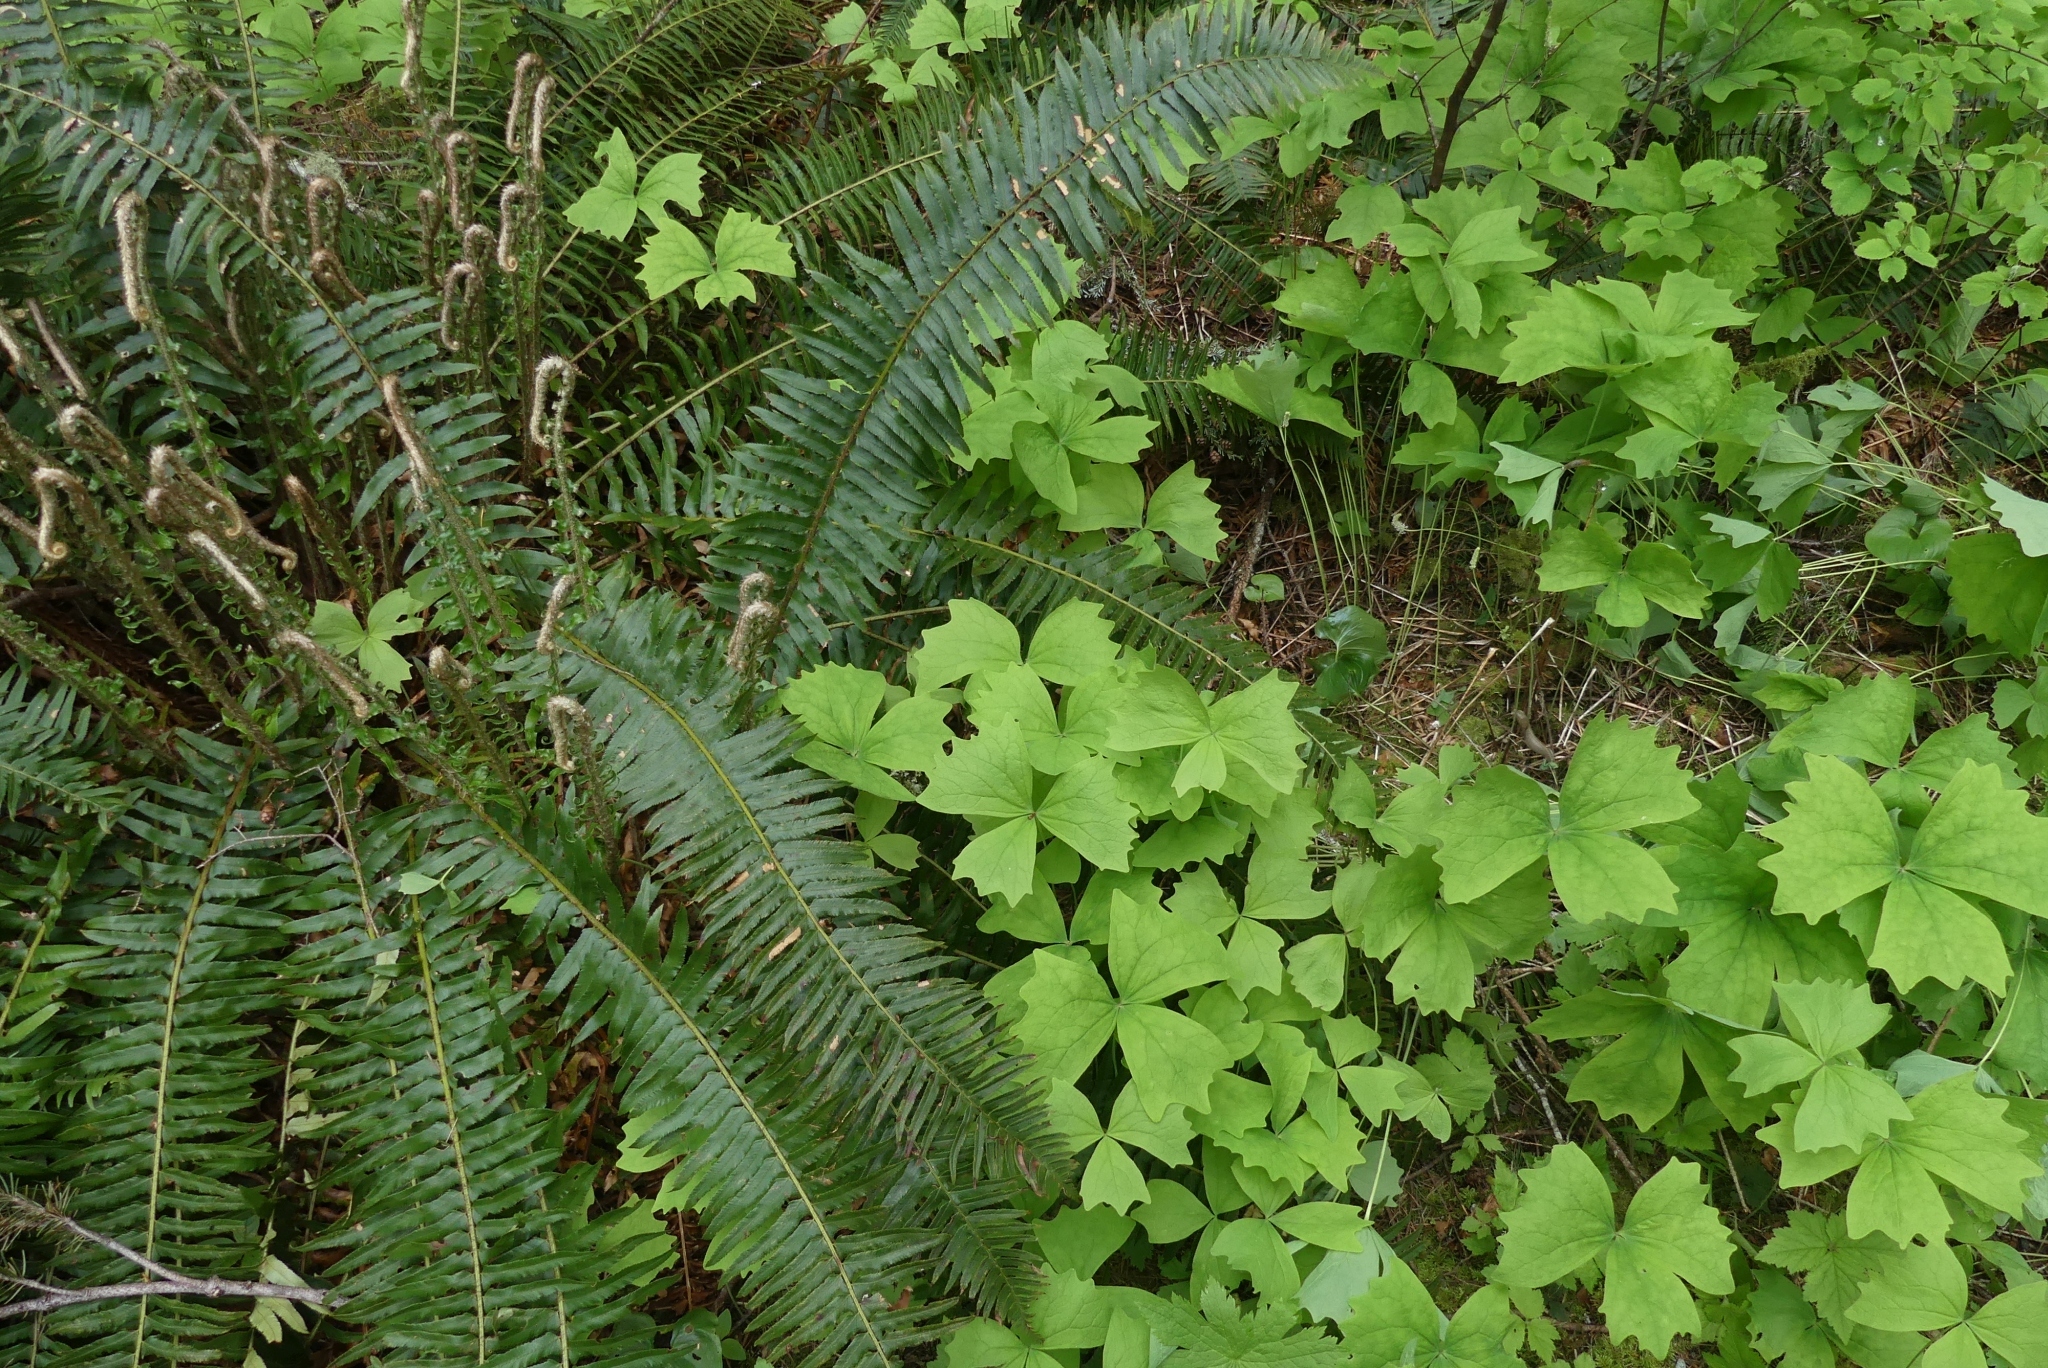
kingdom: Plantae
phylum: Tracheophyta
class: Magnoliopsida
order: Ranunculales
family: Berberidaceae
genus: Achlys
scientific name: Achlys triphylla
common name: Vanilla-leaf
